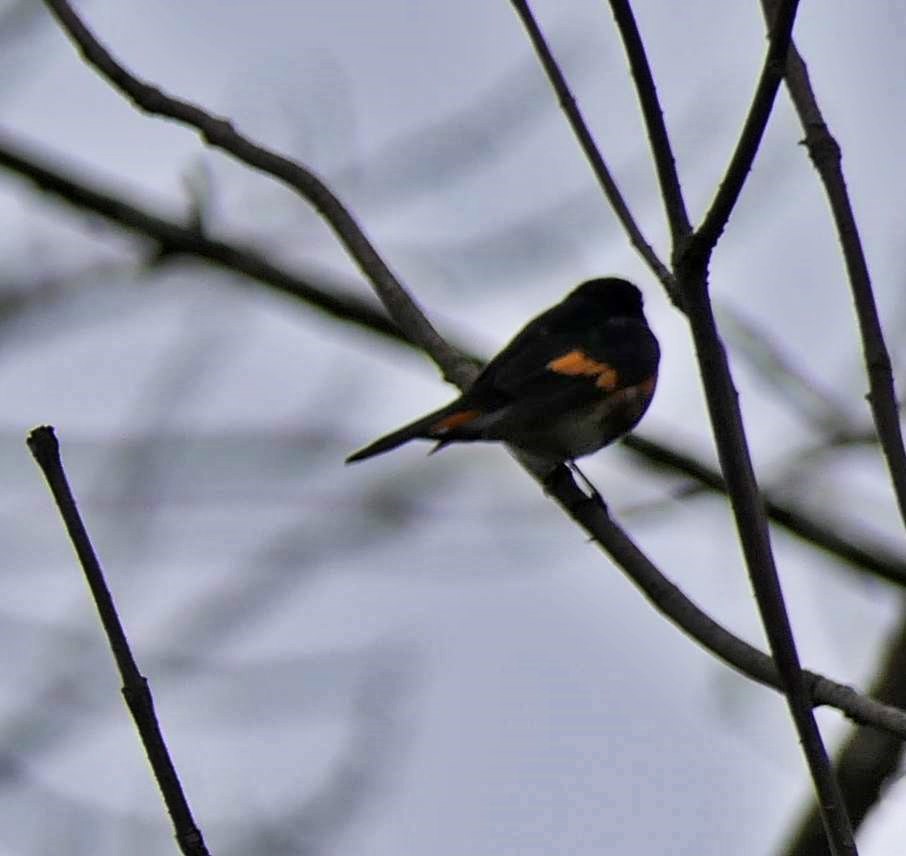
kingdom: Animalia
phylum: Chordata
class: Aves
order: Passeriformes
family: Parulidae
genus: Setophaga
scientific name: Setophaga ruticilla
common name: American redstart
